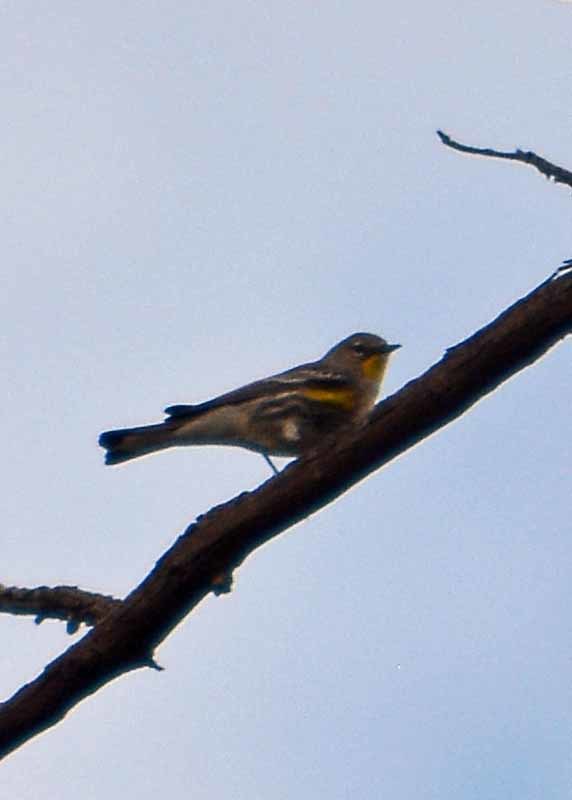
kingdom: Animalia
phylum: Chordata
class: Aves
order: Passeriformes
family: Parulidae
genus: Setophaga
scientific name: Setophaga coronata
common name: Myrtle warbler
